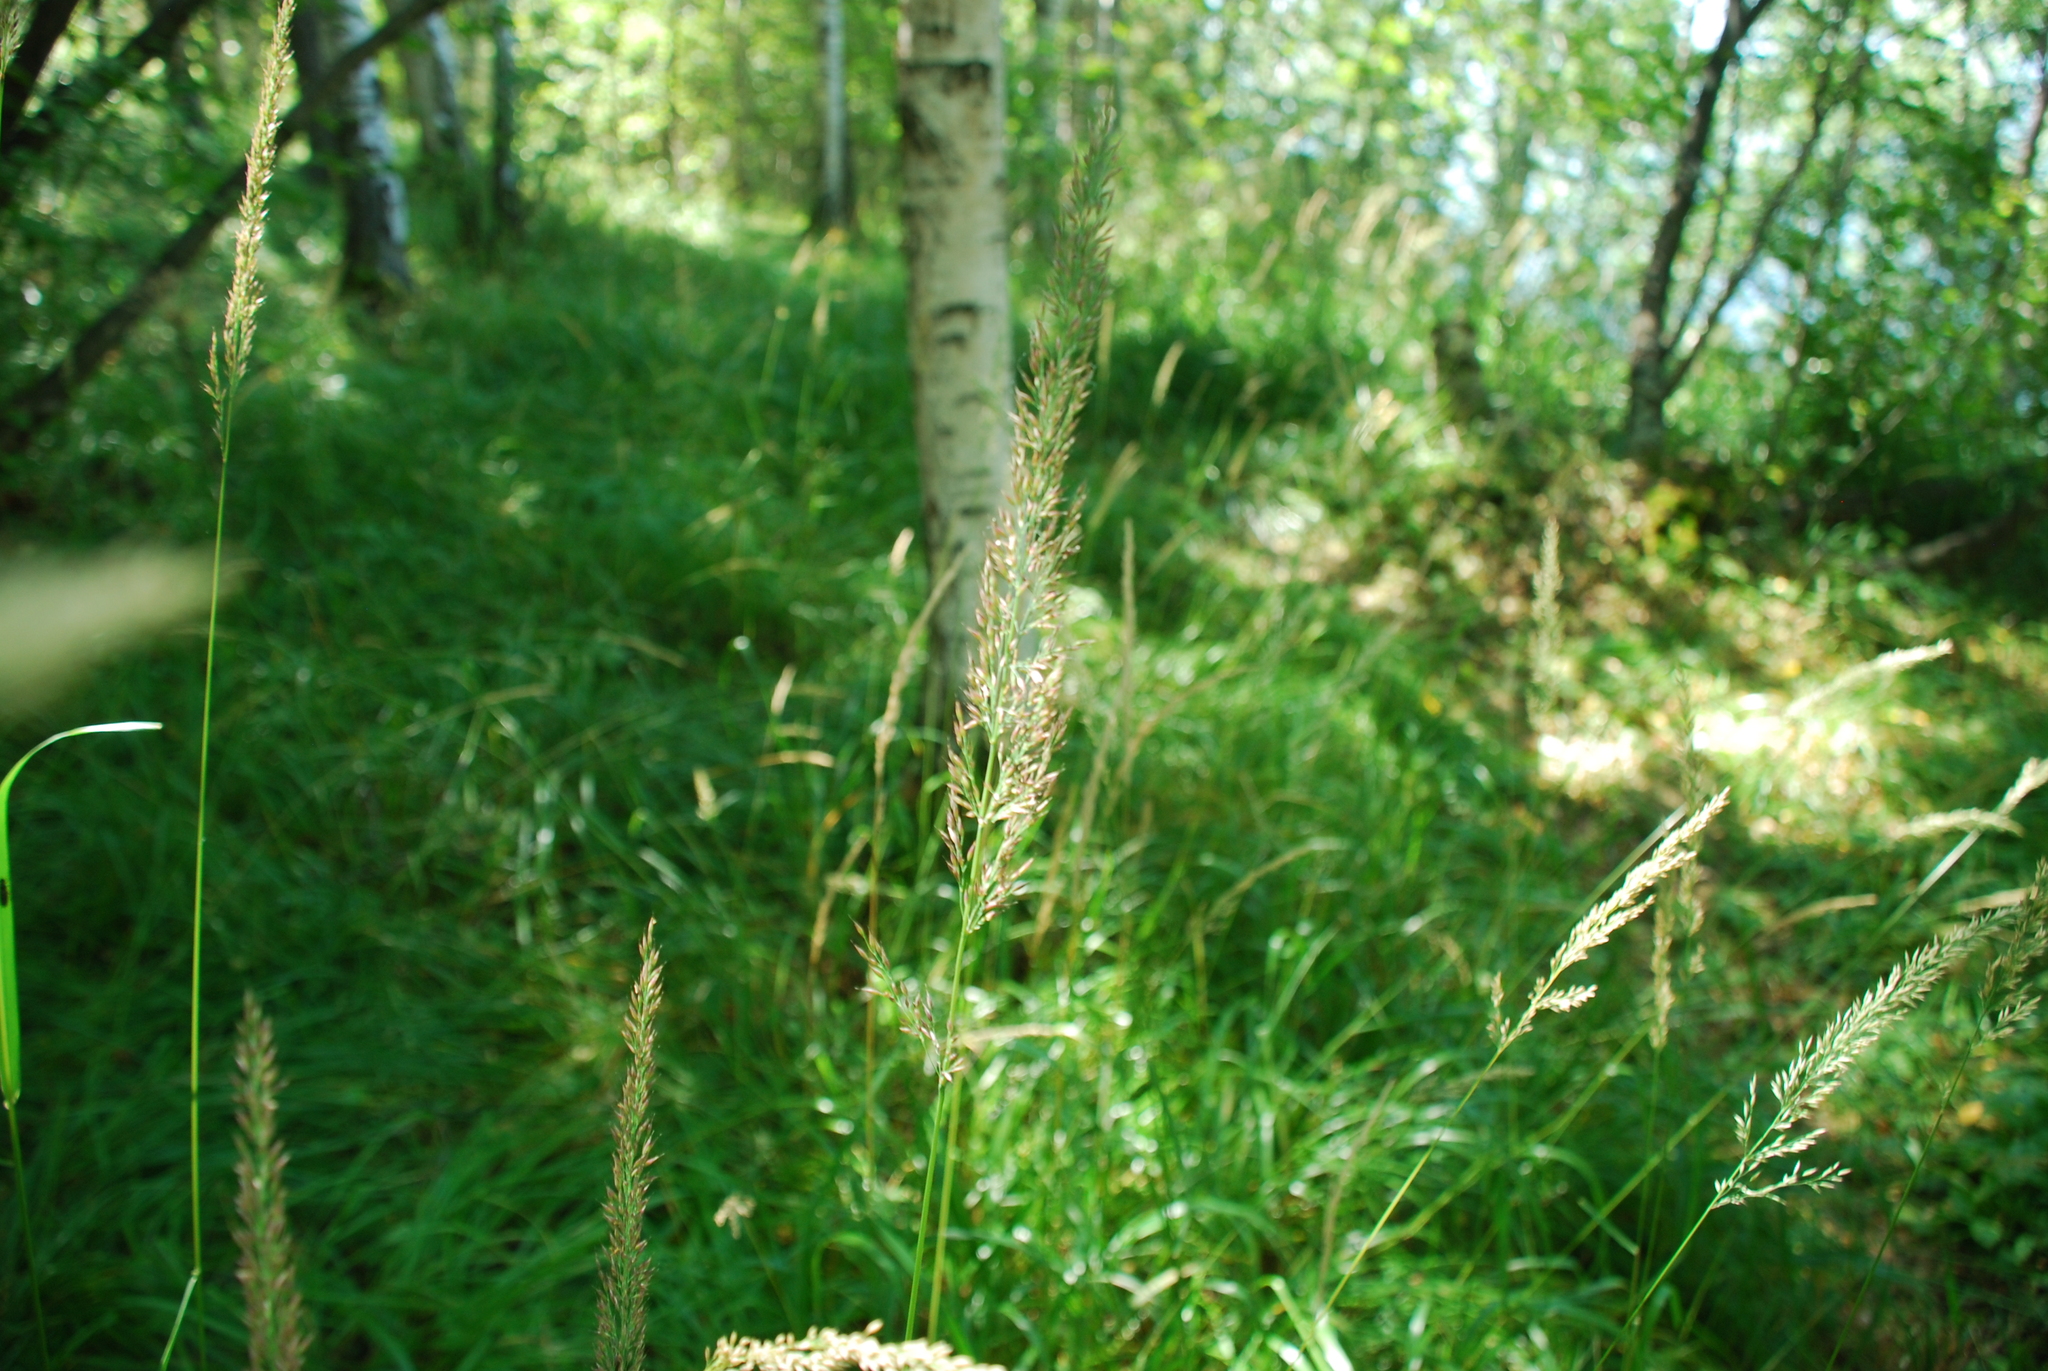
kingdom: Plantae
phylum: Tracheophyta
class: Liliopsida
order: Poales
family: Poaceae
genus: Calamagrostis
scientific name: Calamagrostis arundinacea
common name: Metskastik
